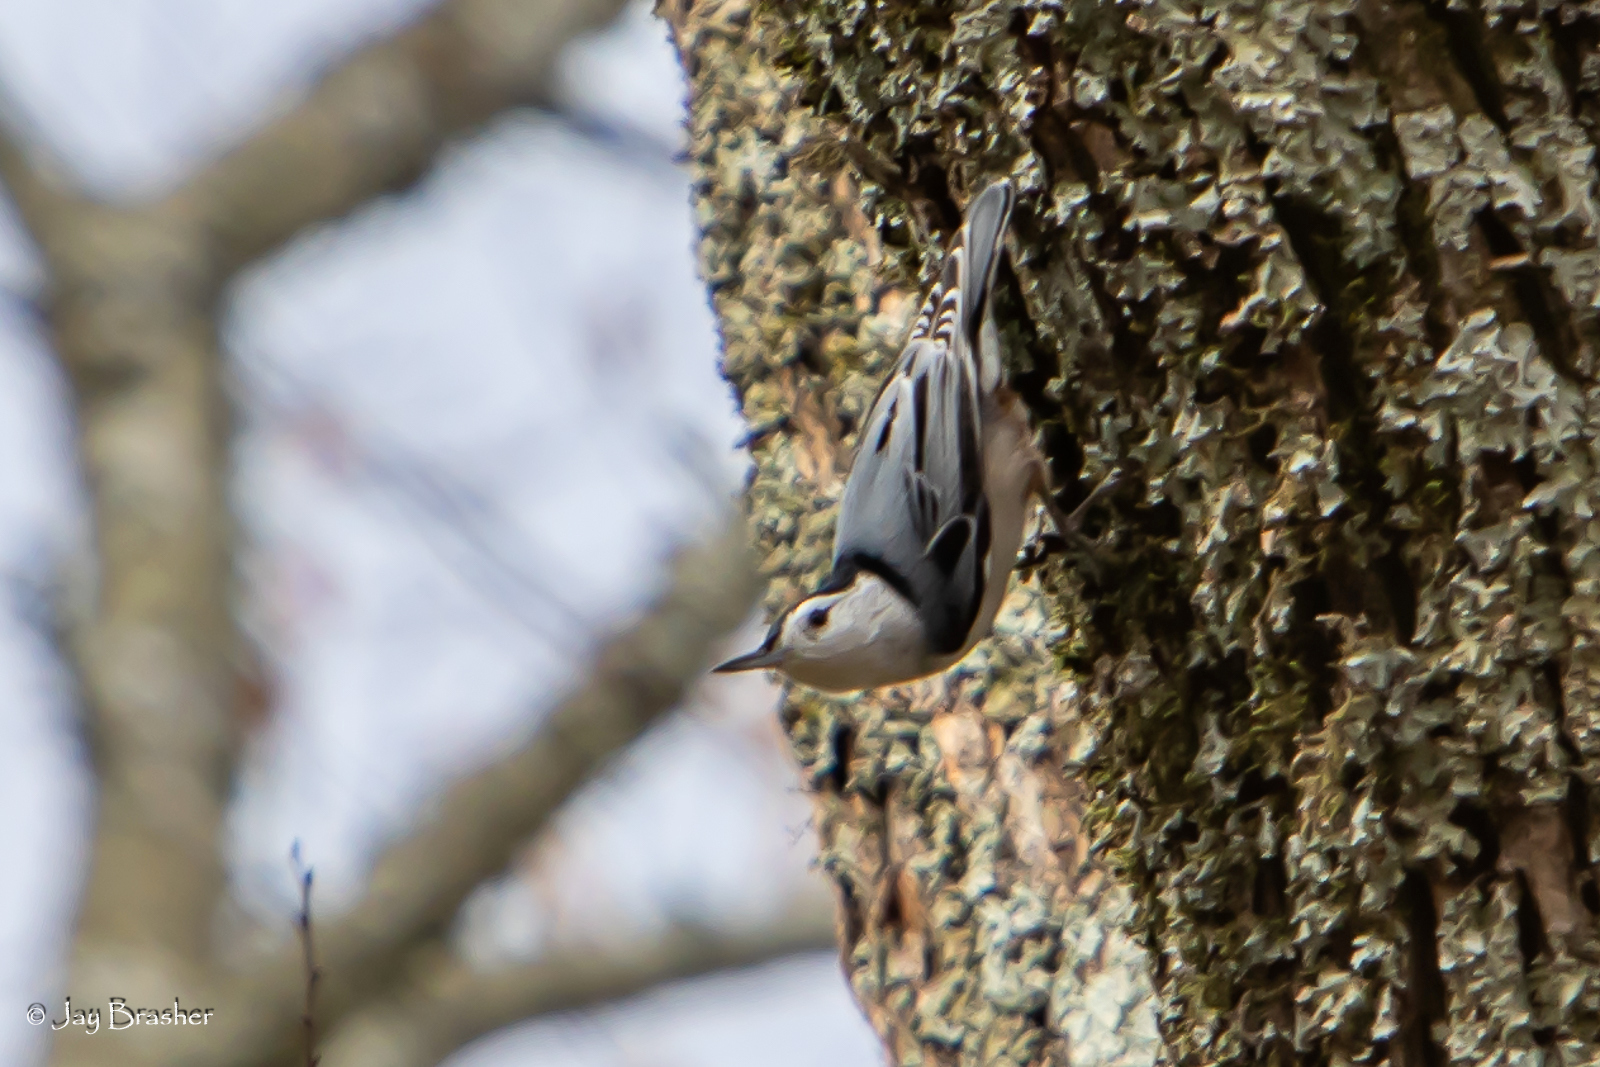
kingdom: Animalia
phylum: Chordata
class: Aves
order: Passeriformes
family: Sittidae
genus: Sitta
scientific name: Sitta carolinensis
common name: White-breasted nuthatch
